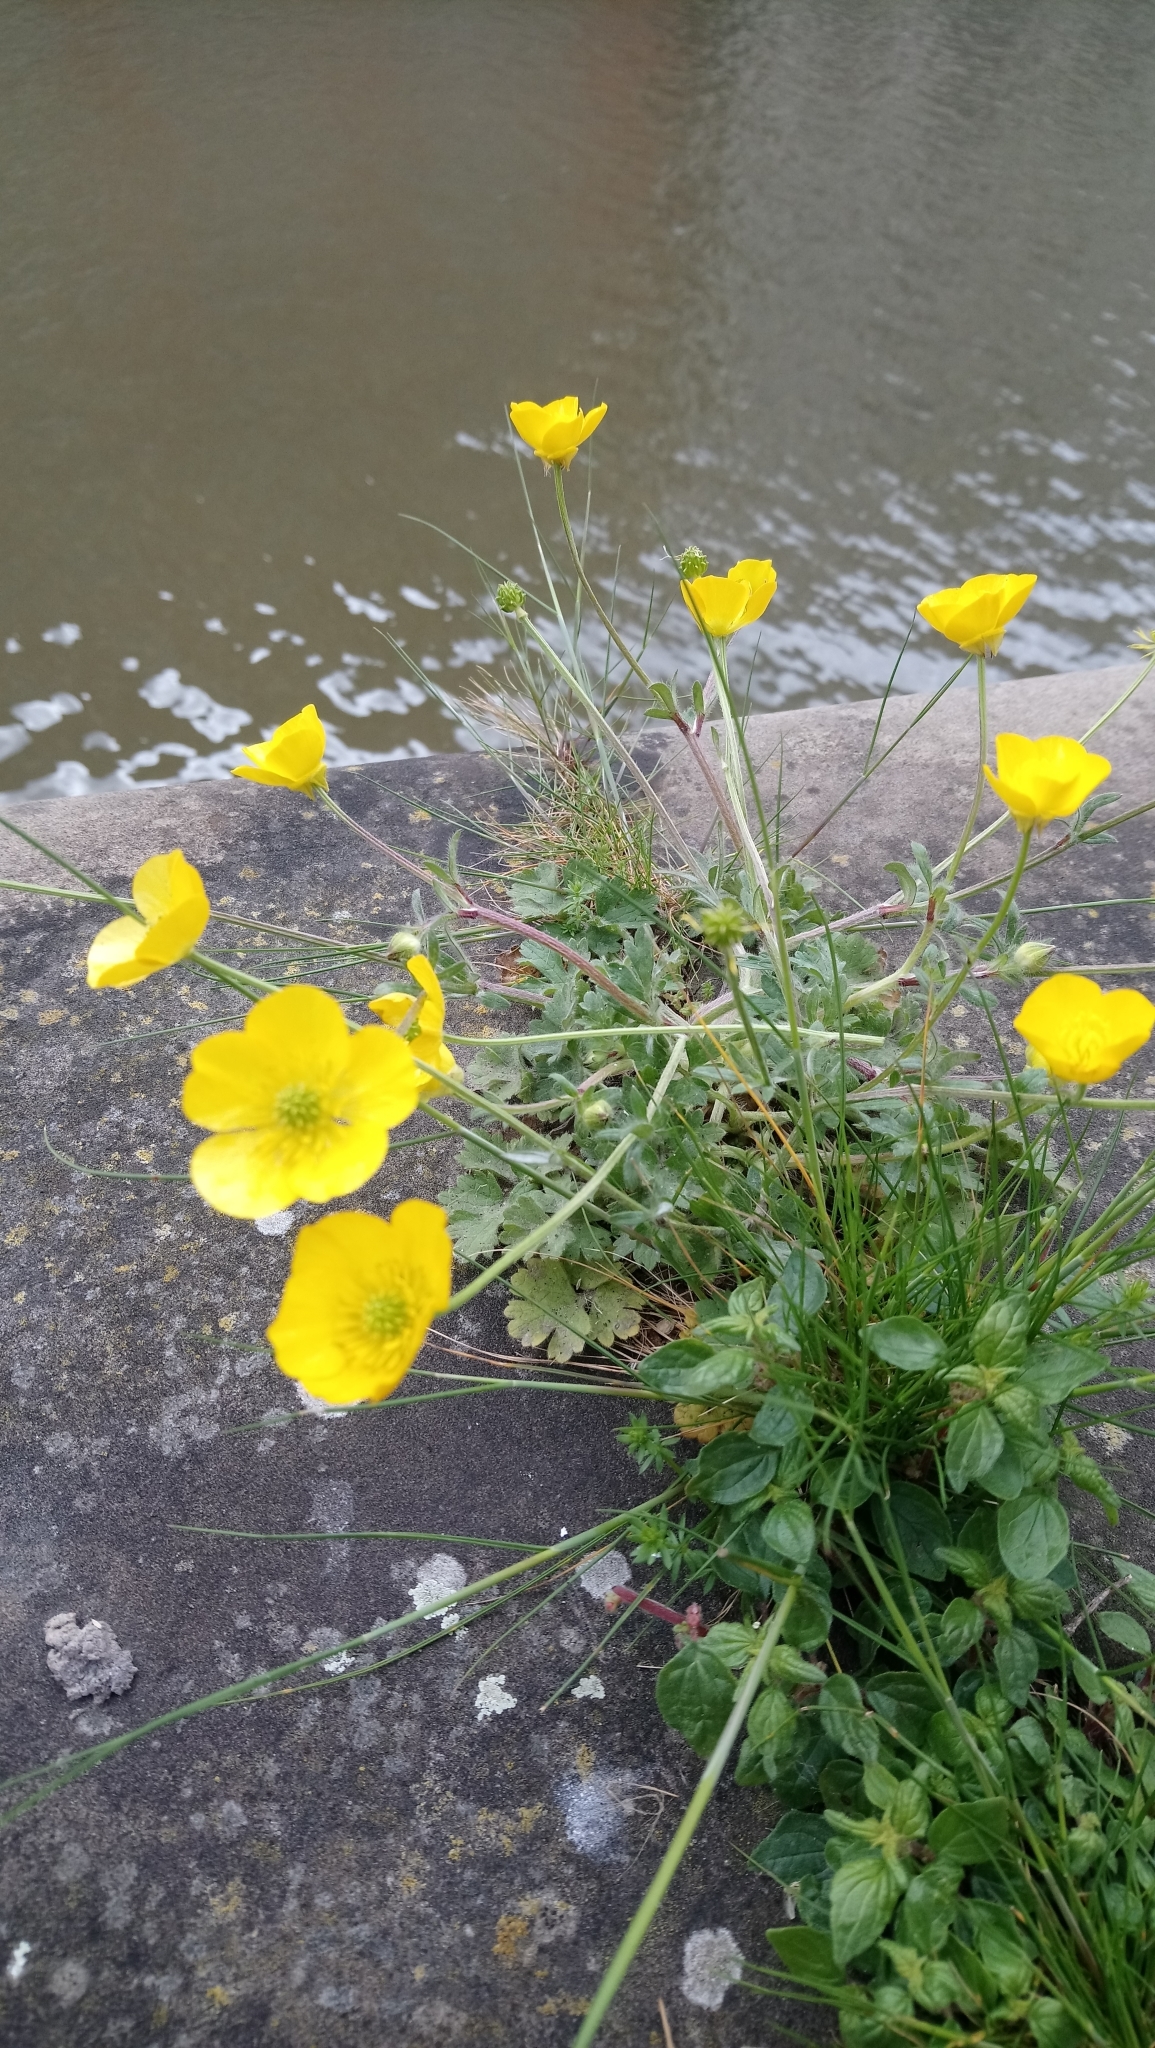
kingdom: Plantae
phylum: Tracheophyta
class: Magnoliopsida
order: Ranunculales
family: Ranunculaceae
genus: Ranunculus
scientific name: Ranunculus bulbosus
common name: Bulbous buttercup
